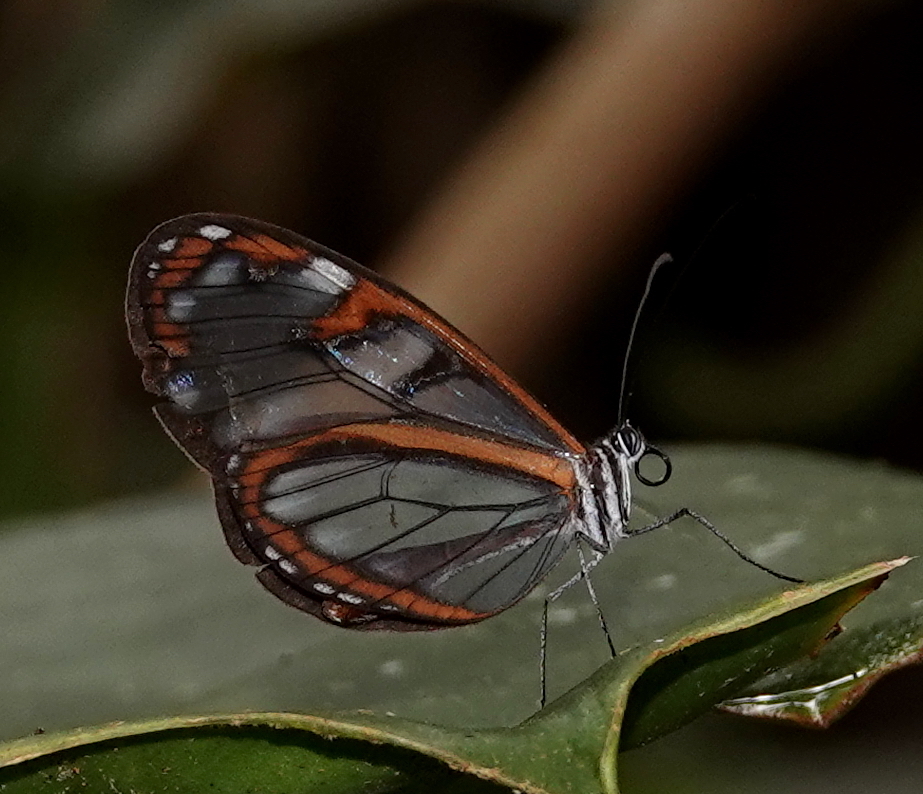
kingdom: Animalia
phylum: Arthropoda
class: Insecta
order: Lepidoptera
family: Nymphalidae
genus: Oleria
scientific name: Oleria santineza
